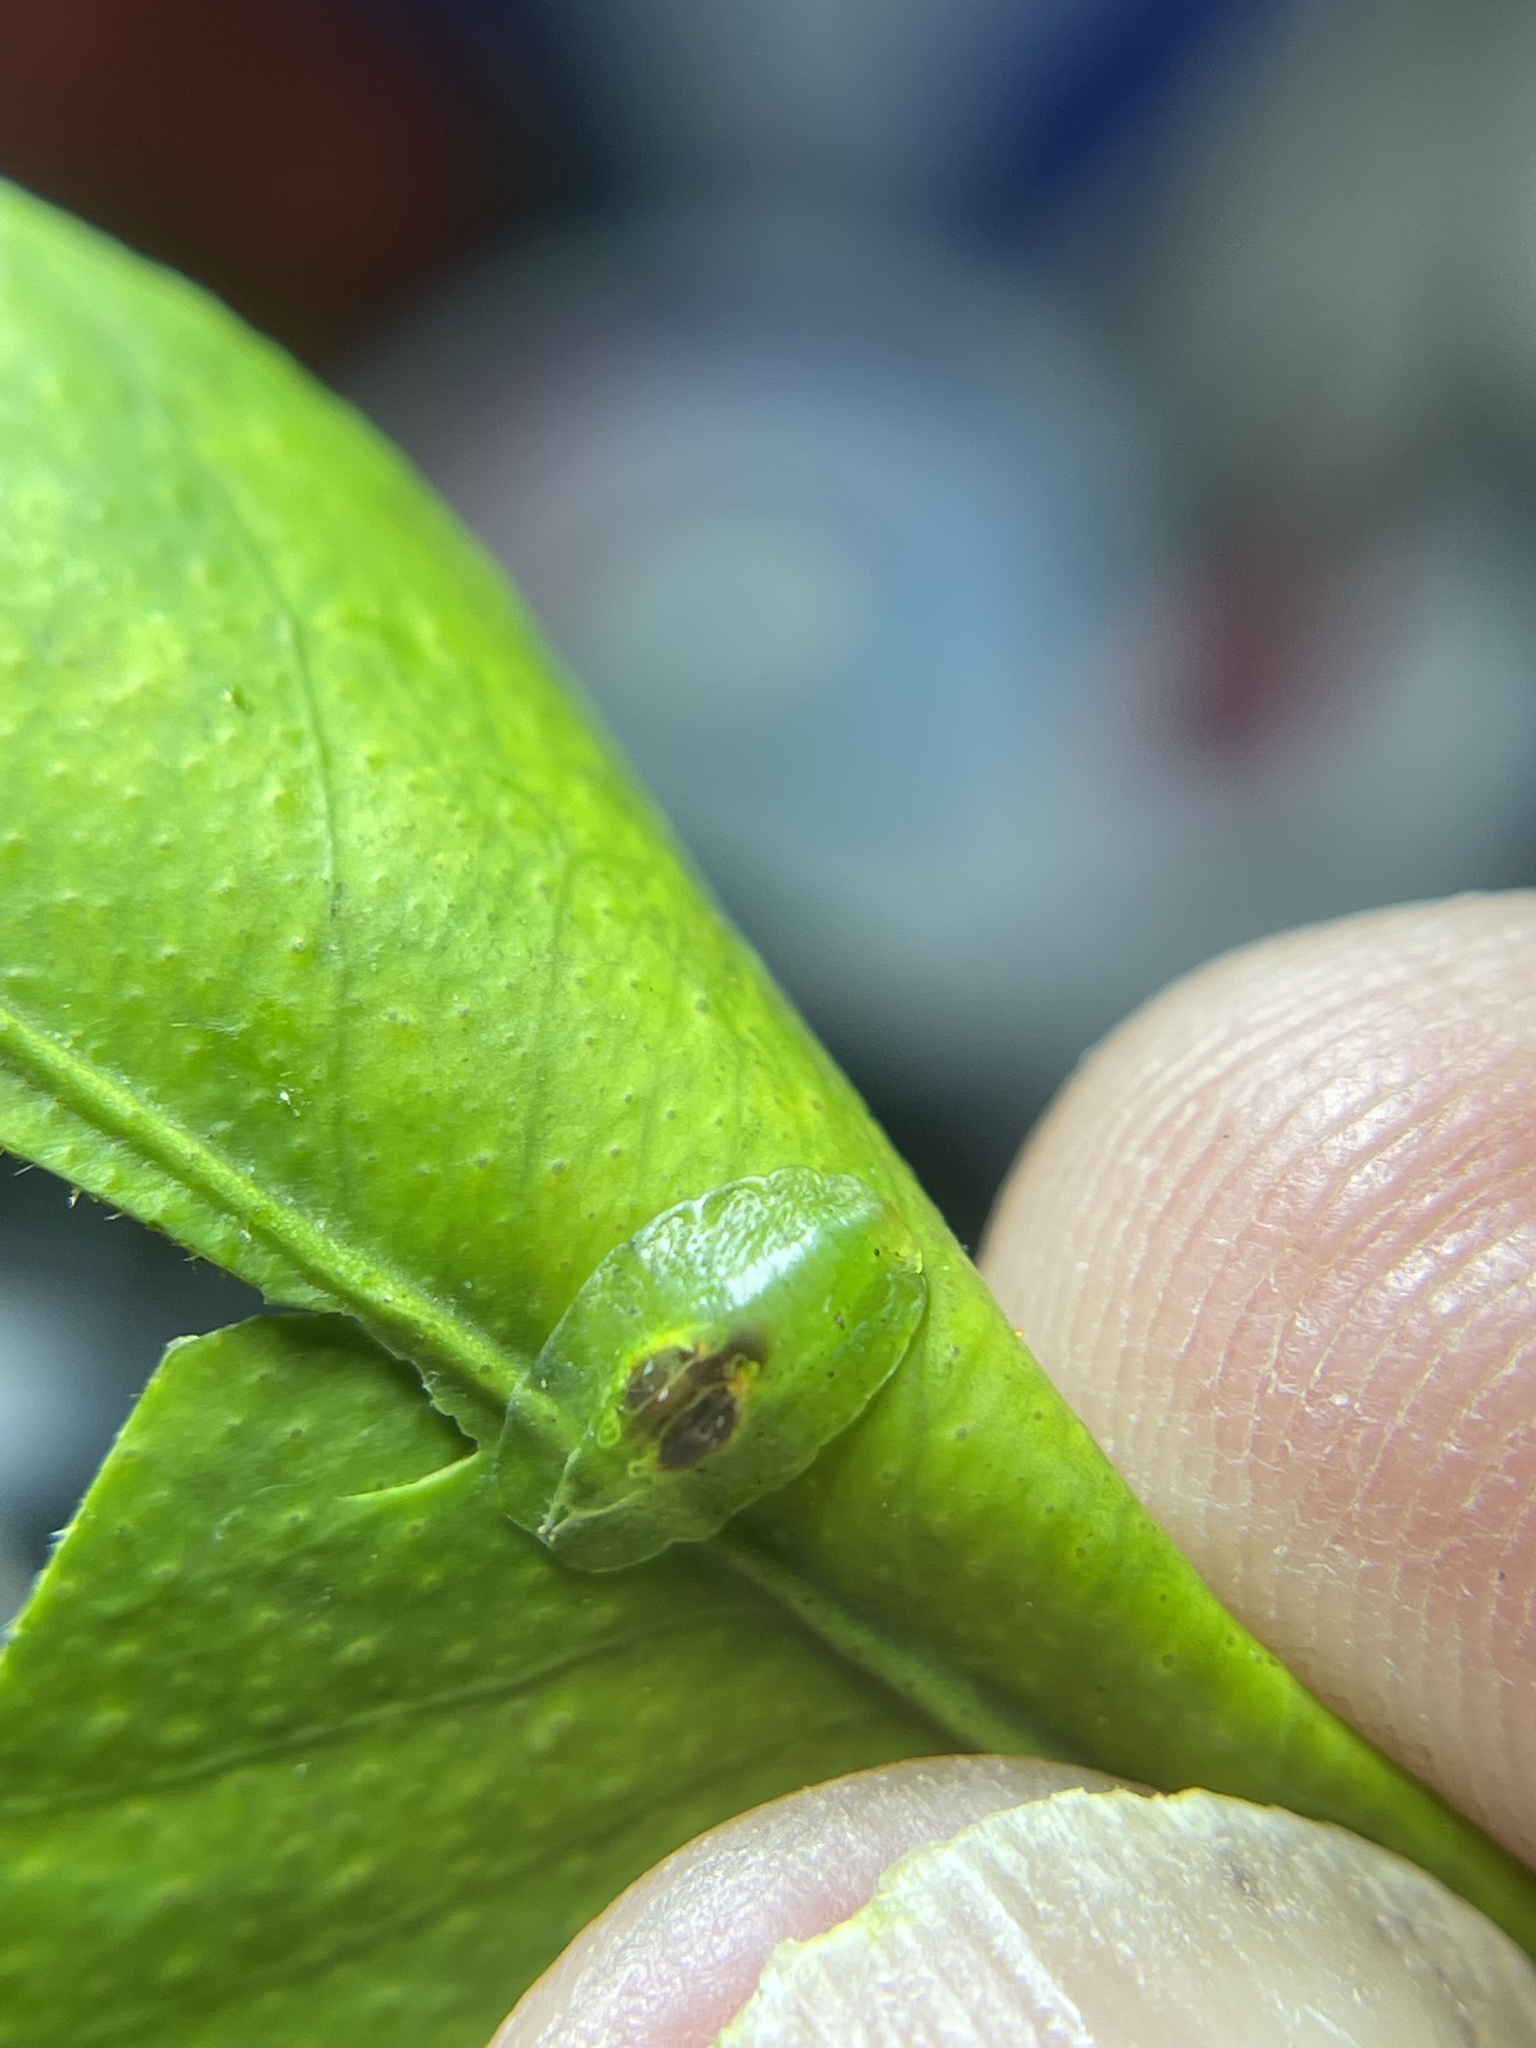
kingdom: Animalia
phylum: Arthropoda
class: Insecta
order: Diptera
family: Syrphidae
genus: Nuntianus
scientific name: Nuntianus cubanus
